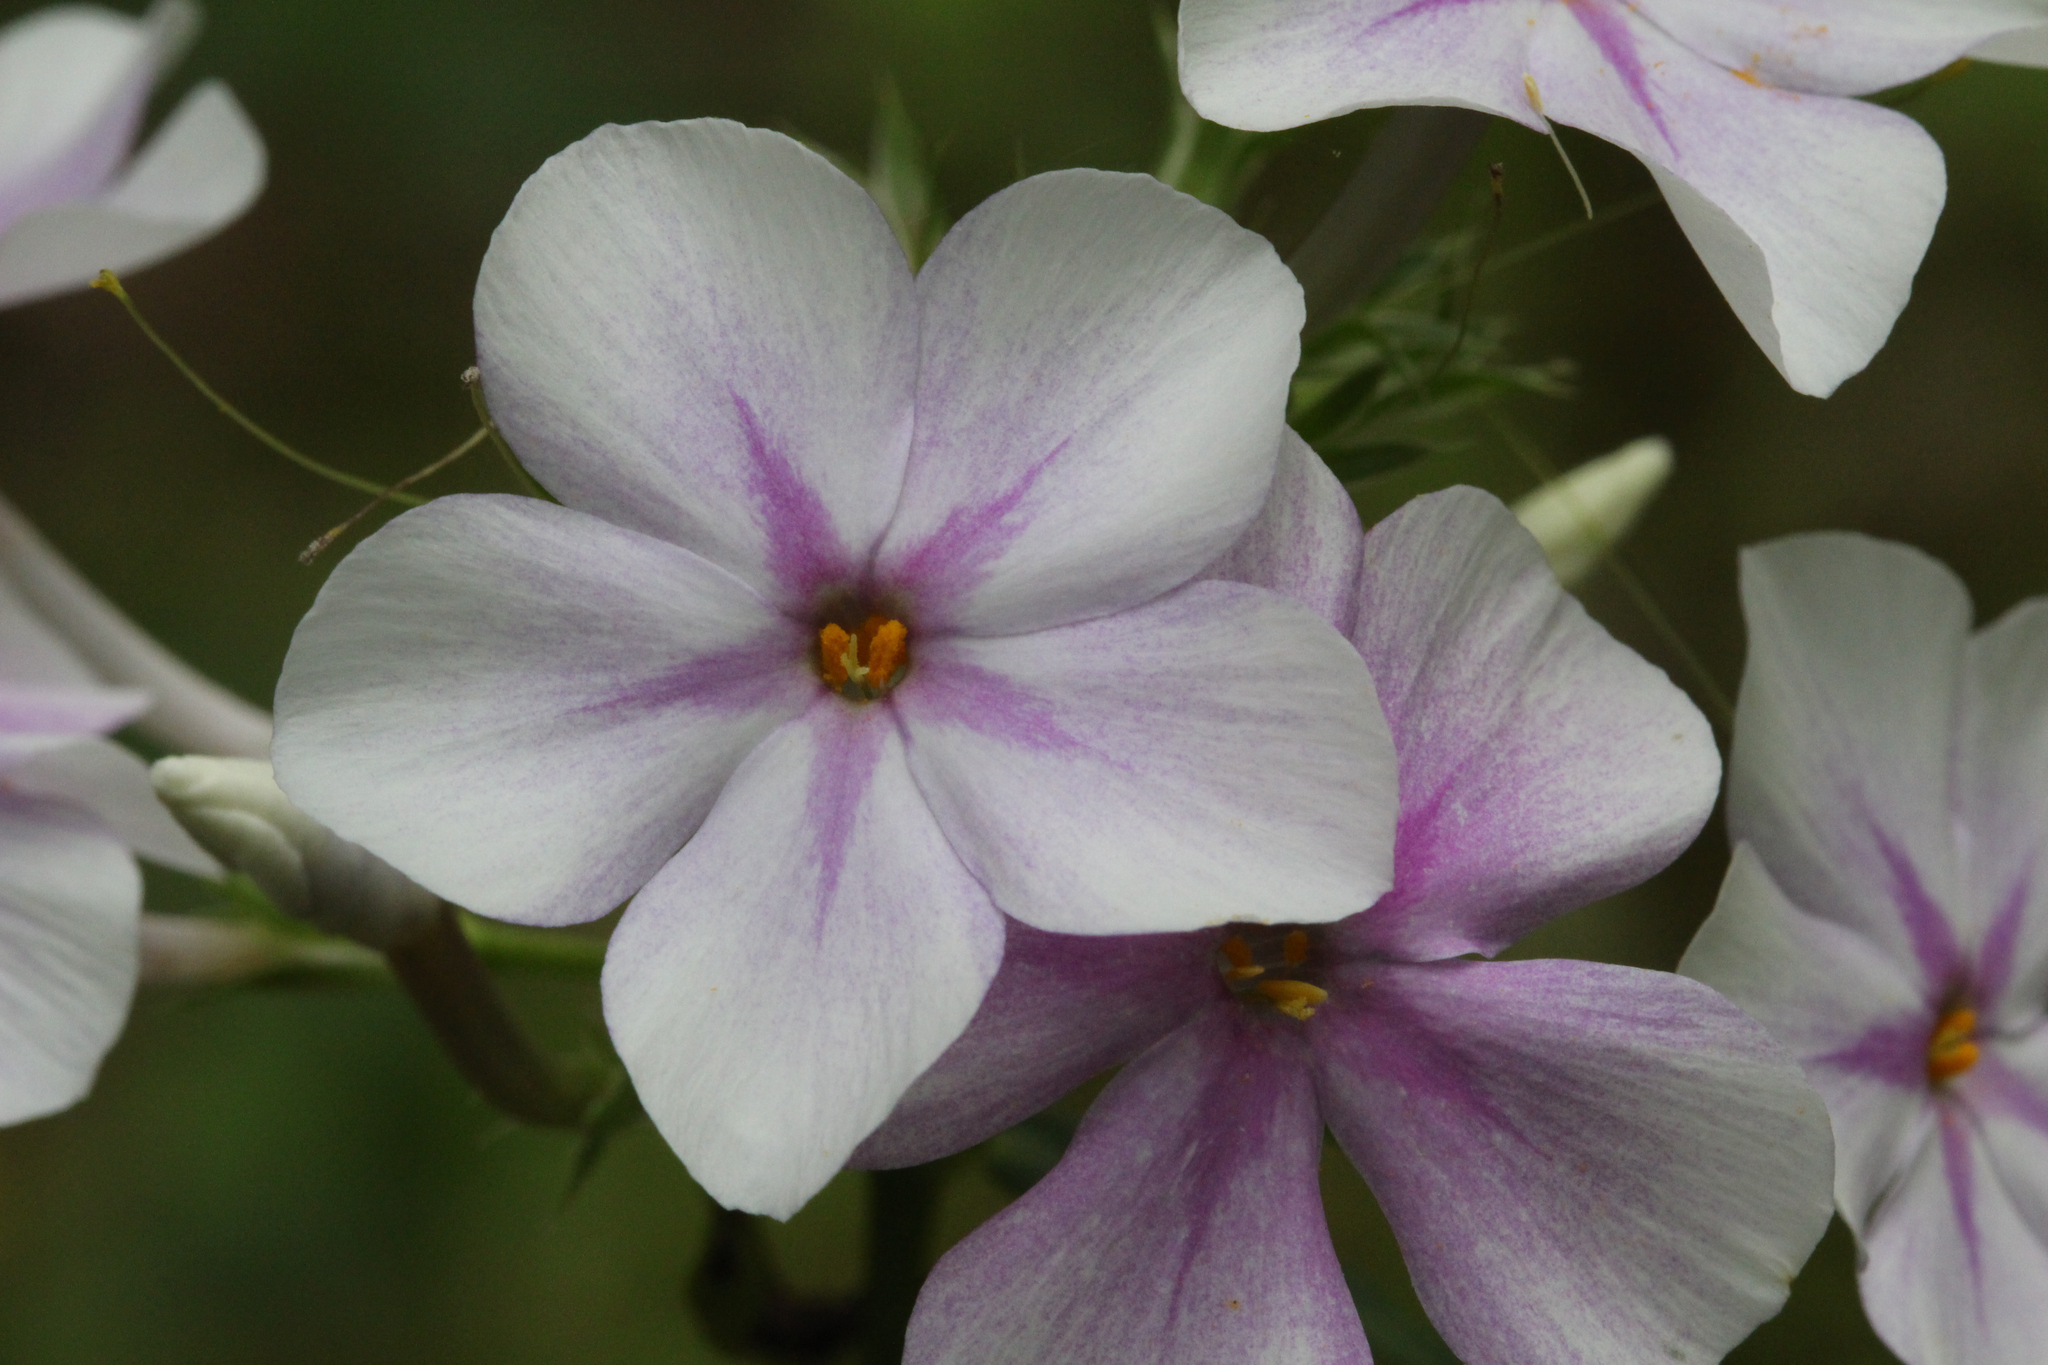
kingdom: Plantae
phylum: Tracheophyta
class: Magnoliopsida
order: Ericales
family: Polemoniaceae
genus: Phlox
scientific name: Phlox carolina
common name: Thick-leaf phlox
